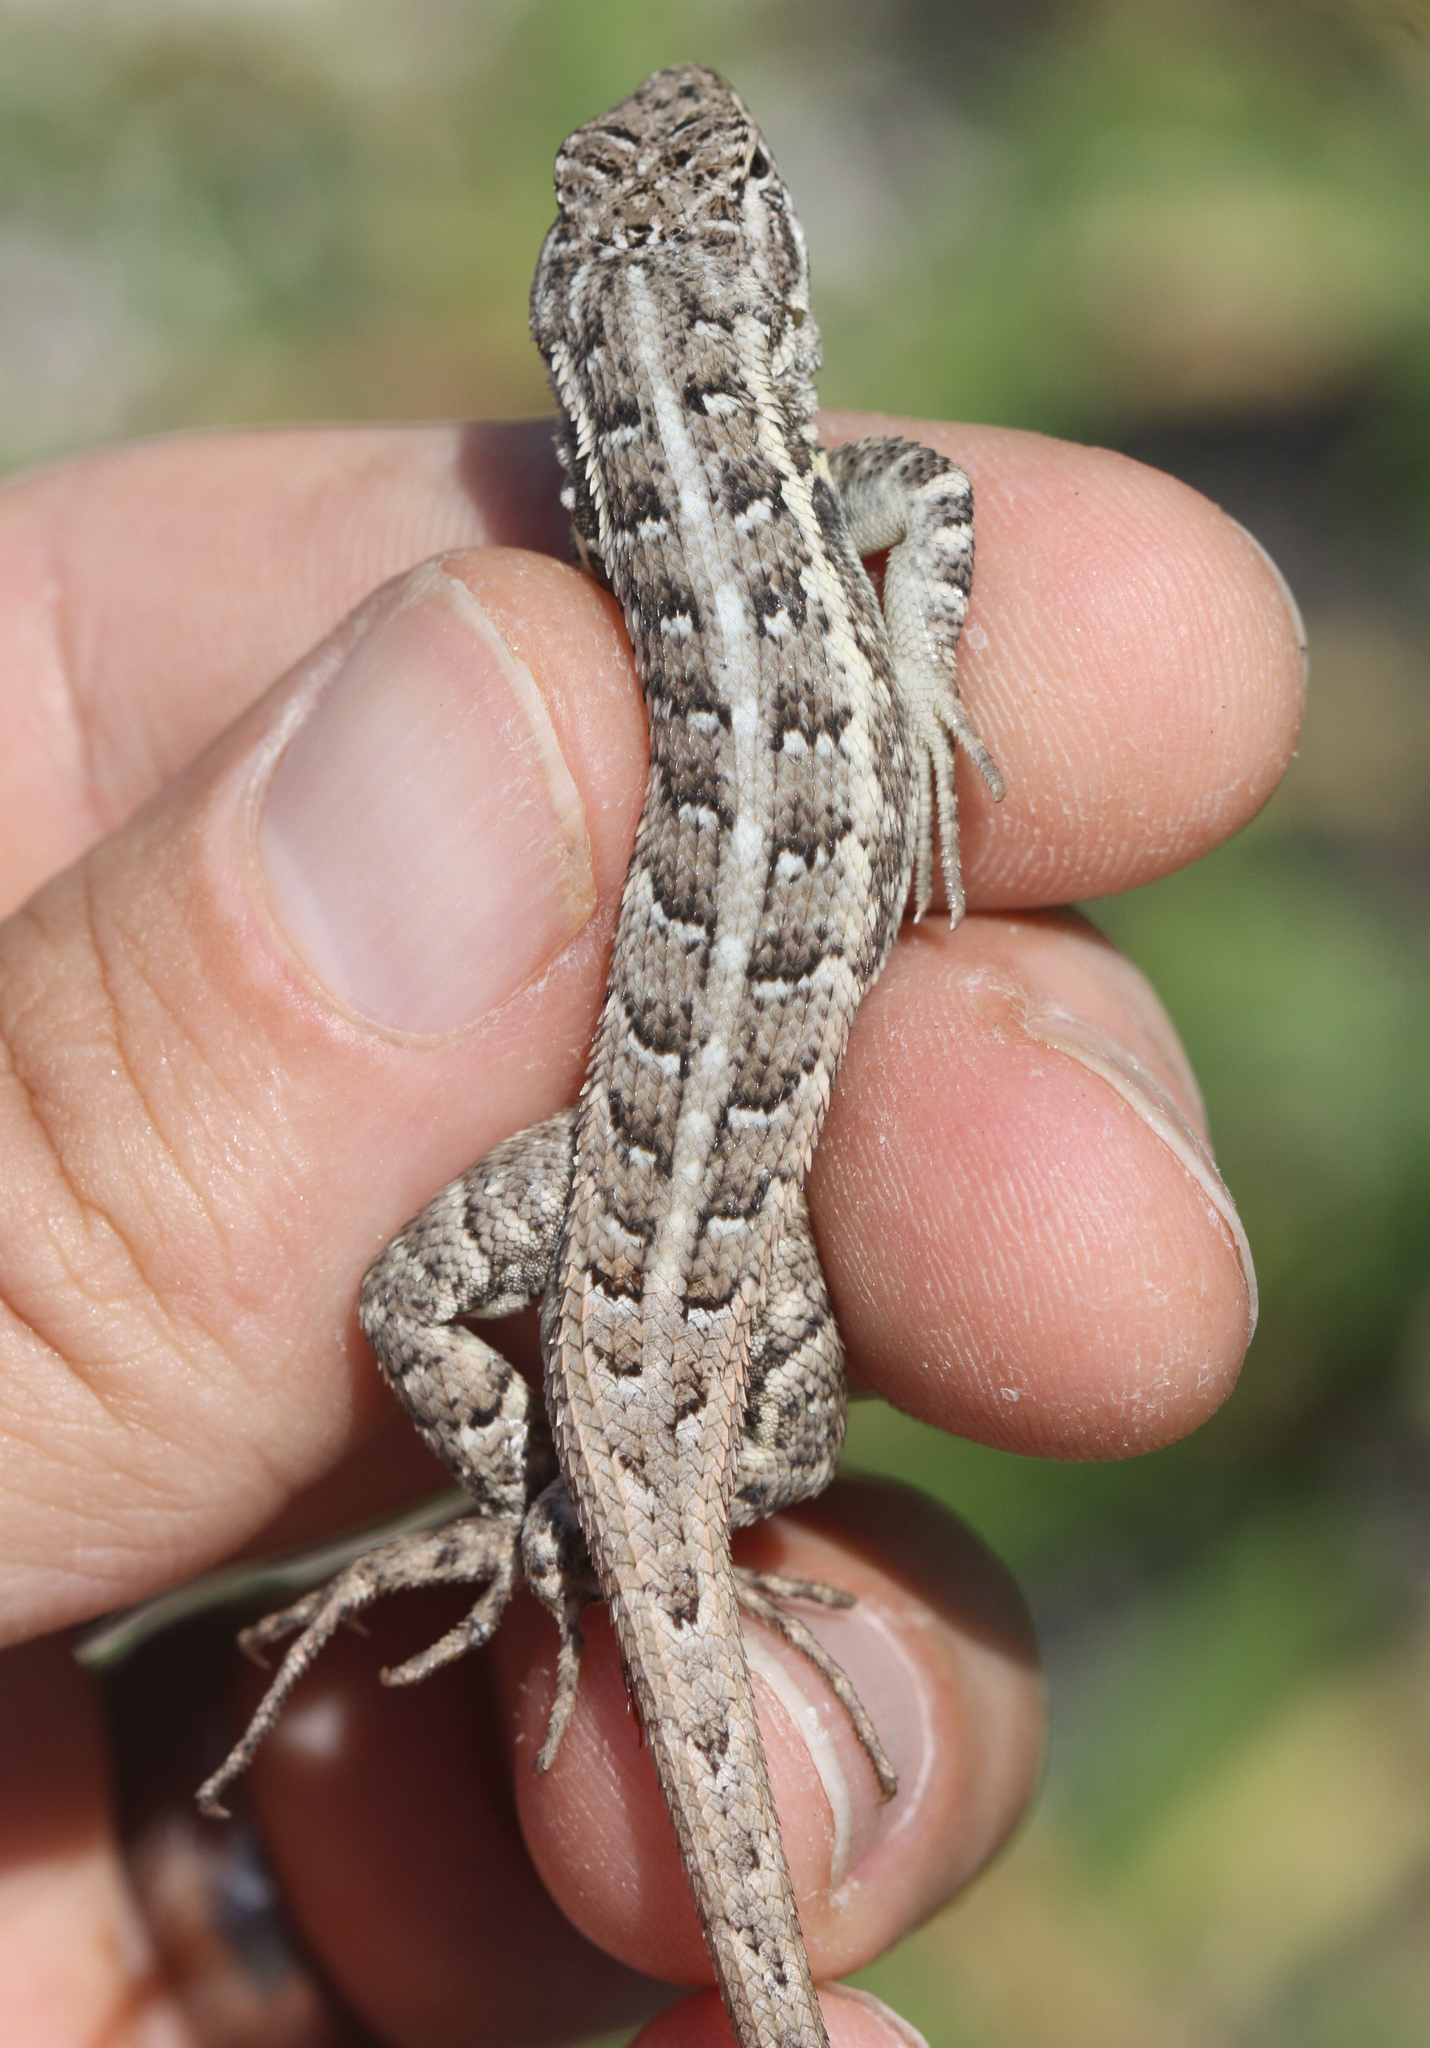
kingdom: Animalia
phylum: Chordata
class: Squamata
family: Phrynosomatidae
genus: Sceloporus
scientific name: Sceloporus cozumelae
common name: Cozumel spiny lizard
